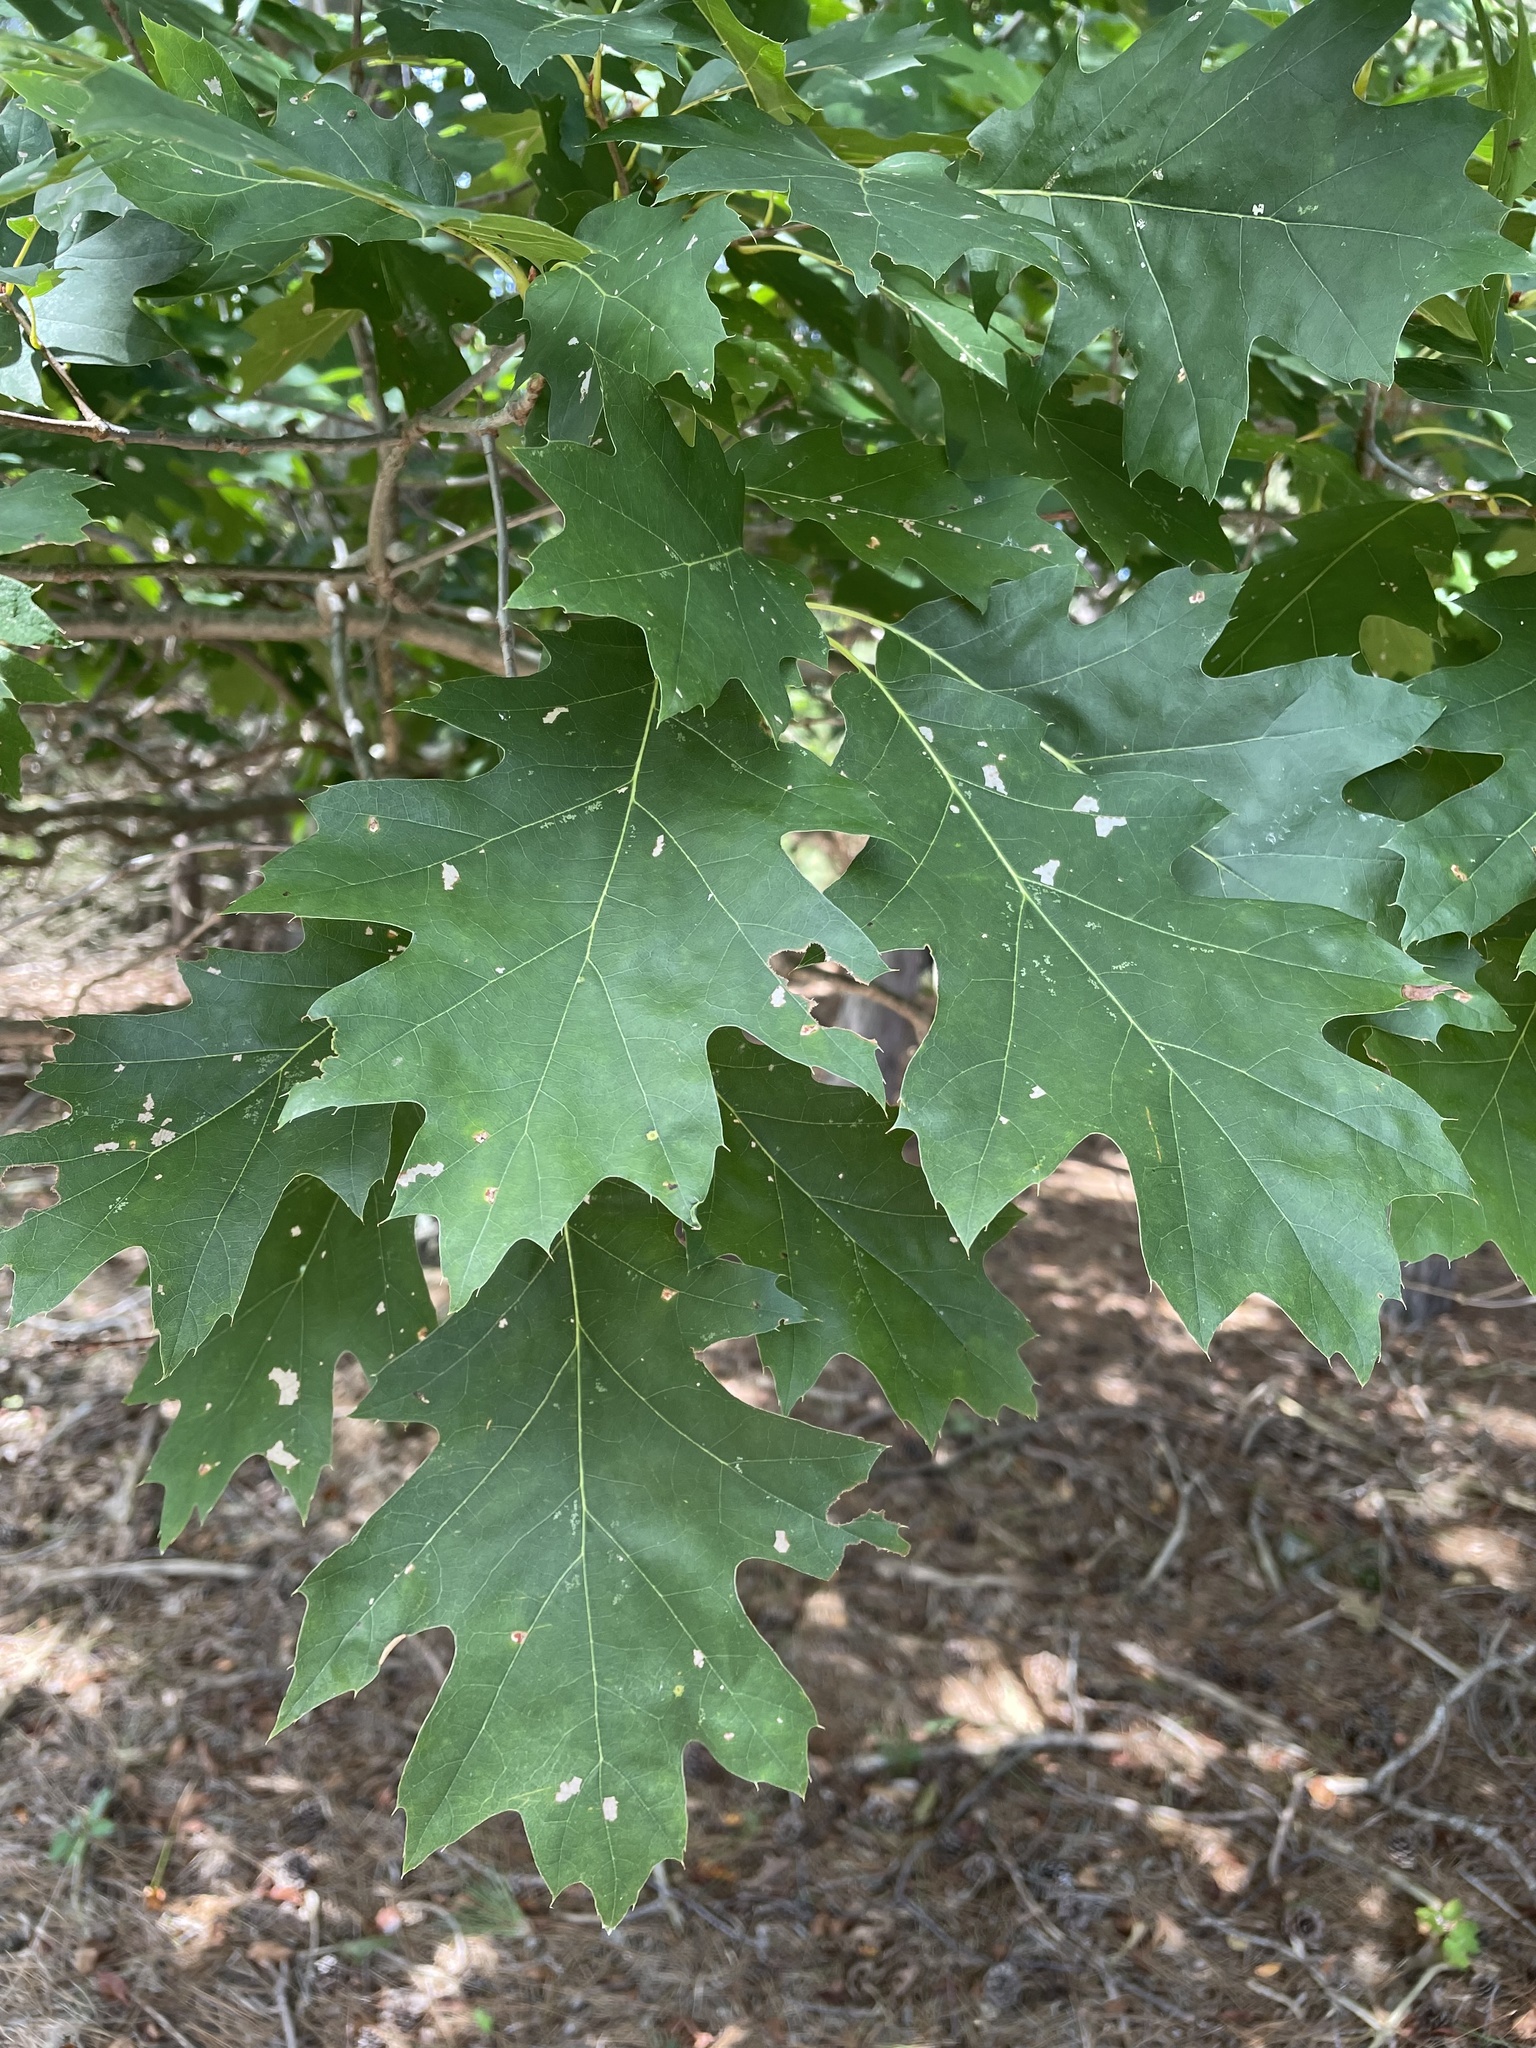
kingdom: Plantae
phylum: Tracheophyta
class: Magnoliopsida
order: Fagales
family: Fagaceae
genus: Quercus
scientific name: Quercus rubra
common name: Red oak
